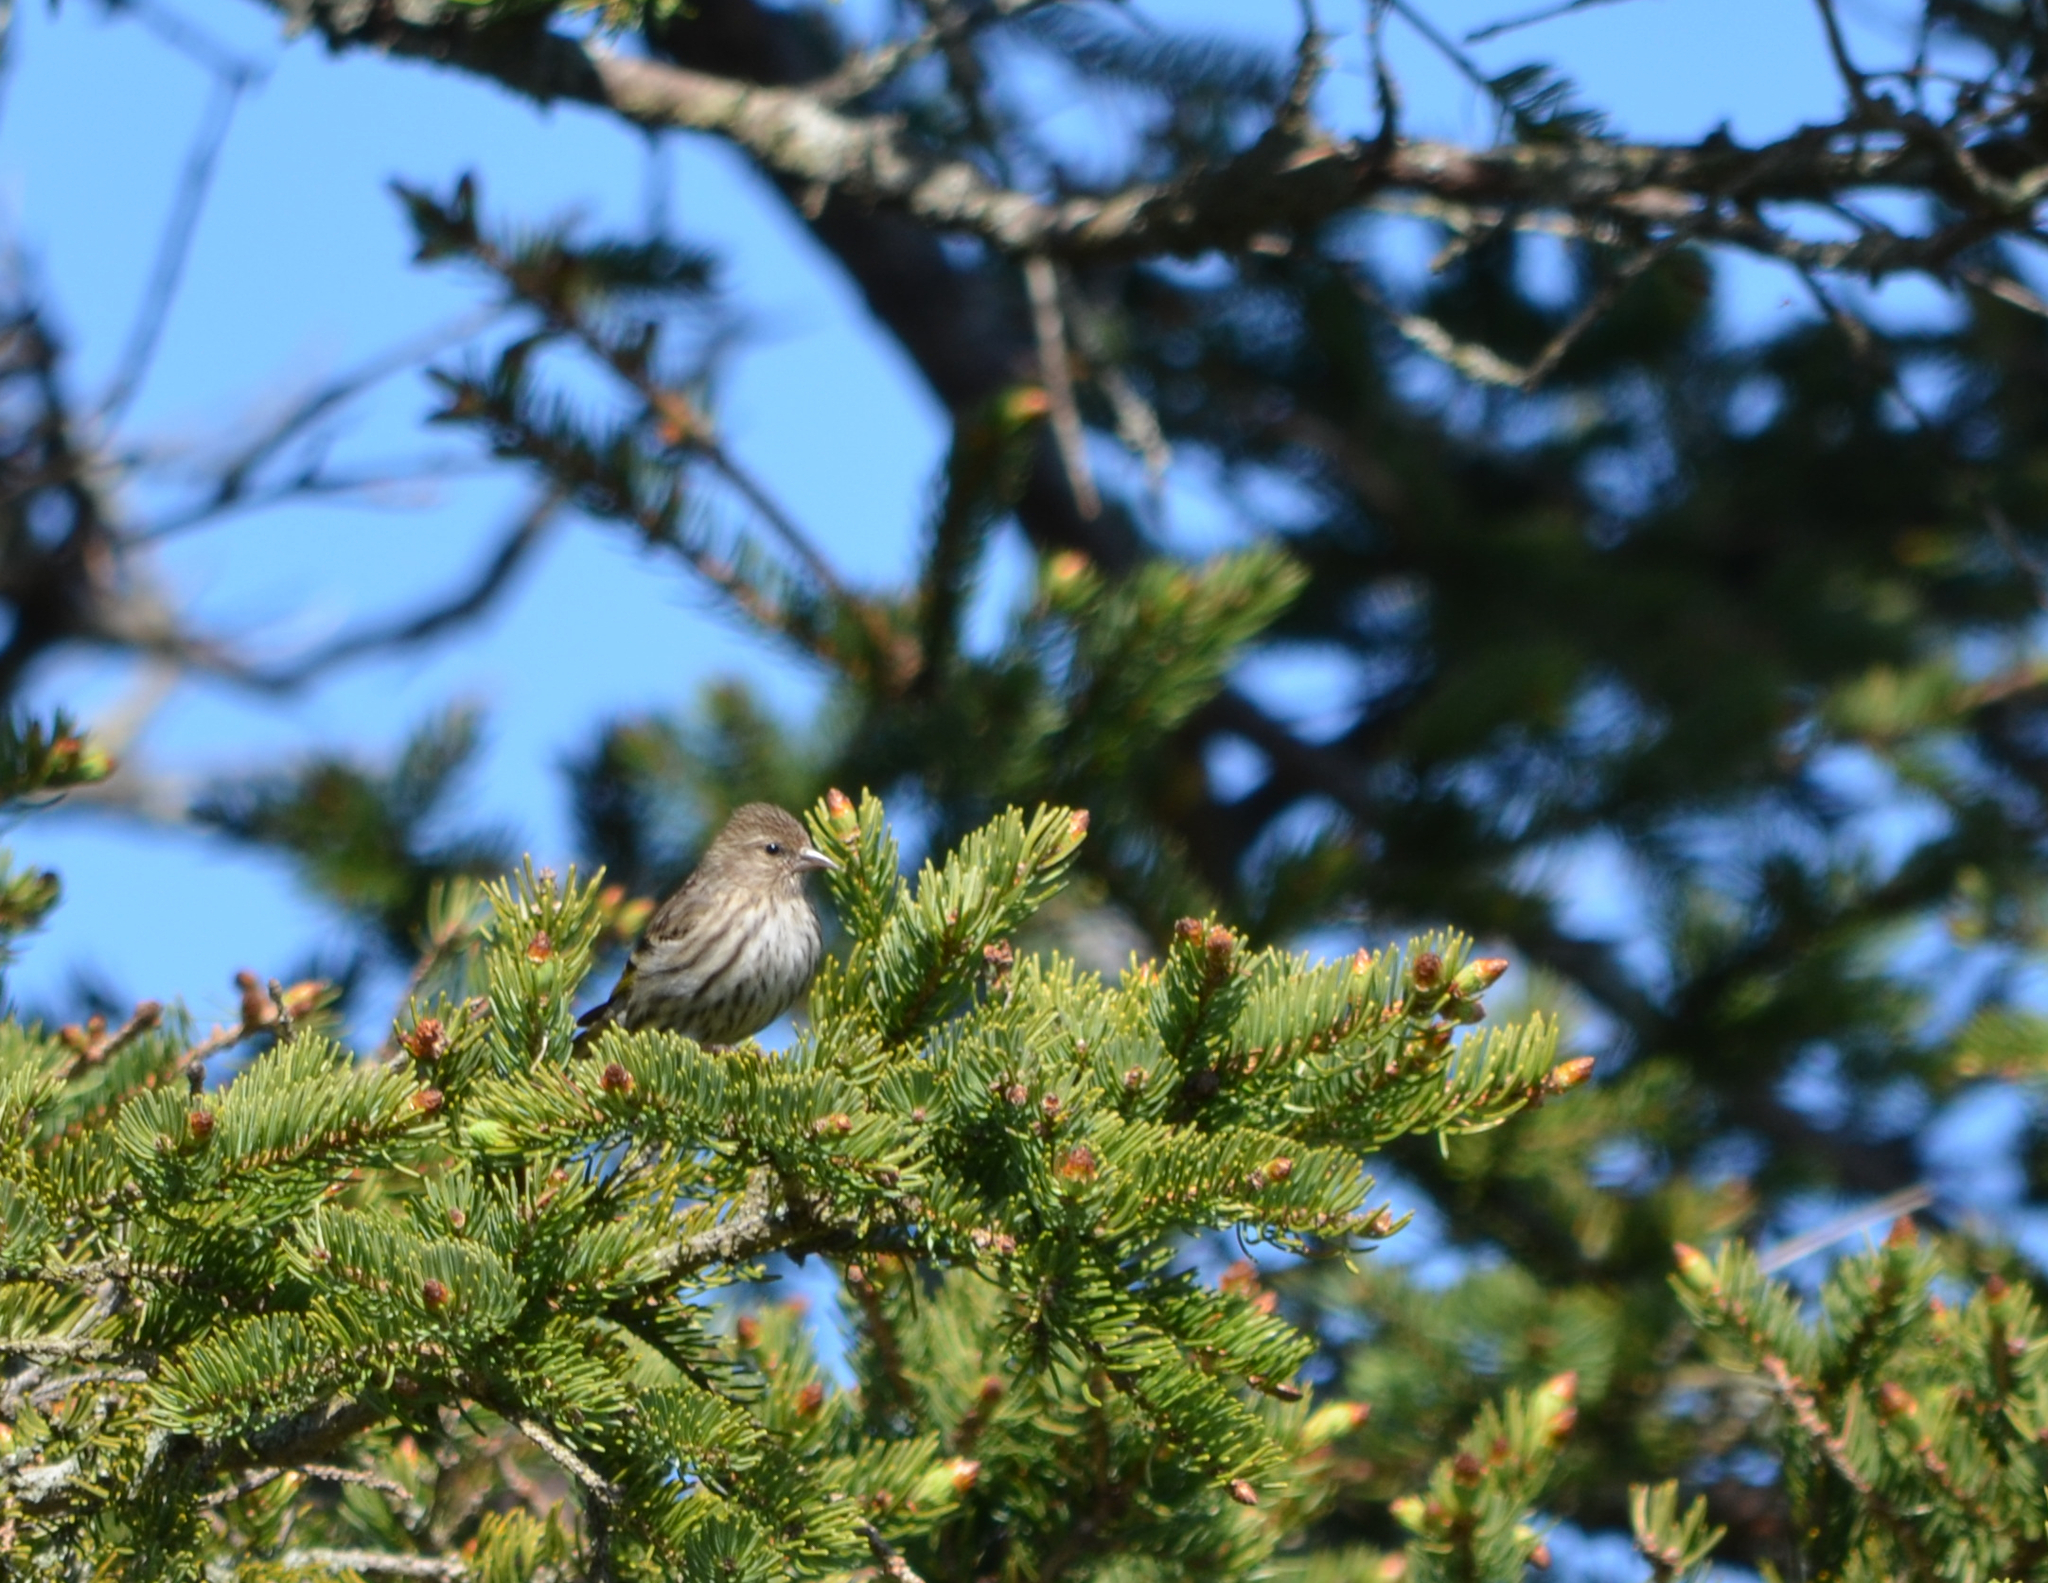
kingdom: Animalia
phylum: Chordata
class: Aves
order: Passeriformes
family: Fringillidae
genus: Spinus
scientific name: Spinus pinus
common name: Pine siskin
